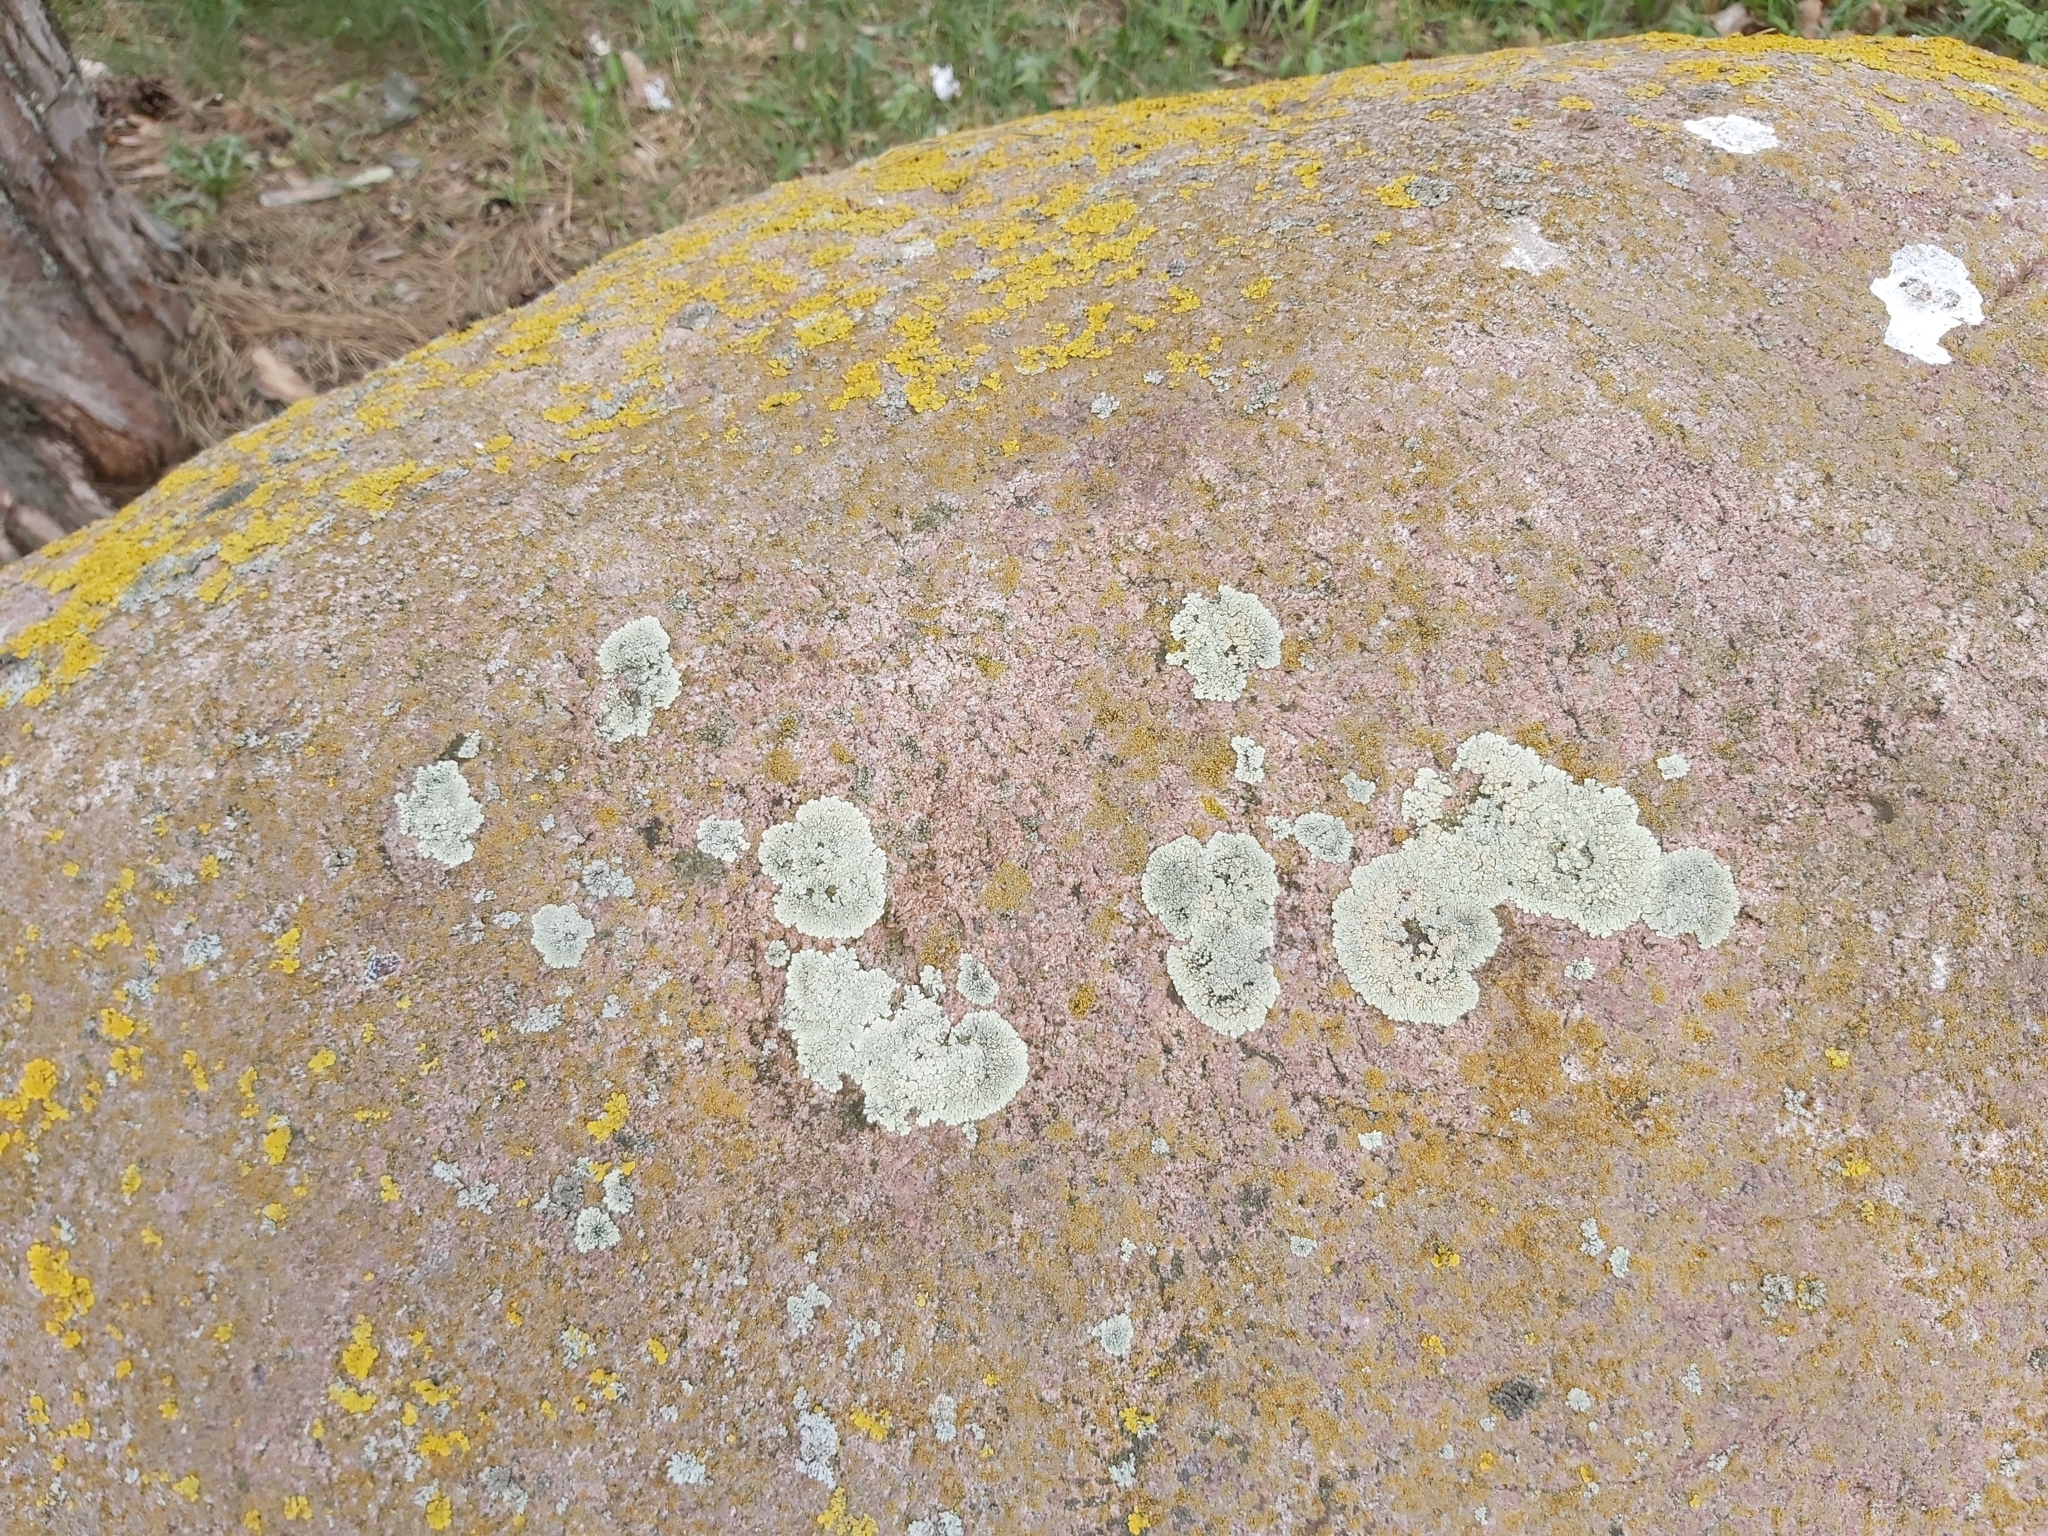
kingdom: Fungi
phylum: Ascomycota
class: Lecanoromycetes
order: Lecanorales
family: Lecanoraceae
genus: Protoparmeliopsis
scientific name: Protoparmeliopsis muralis
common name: Stonewall rim lichen
